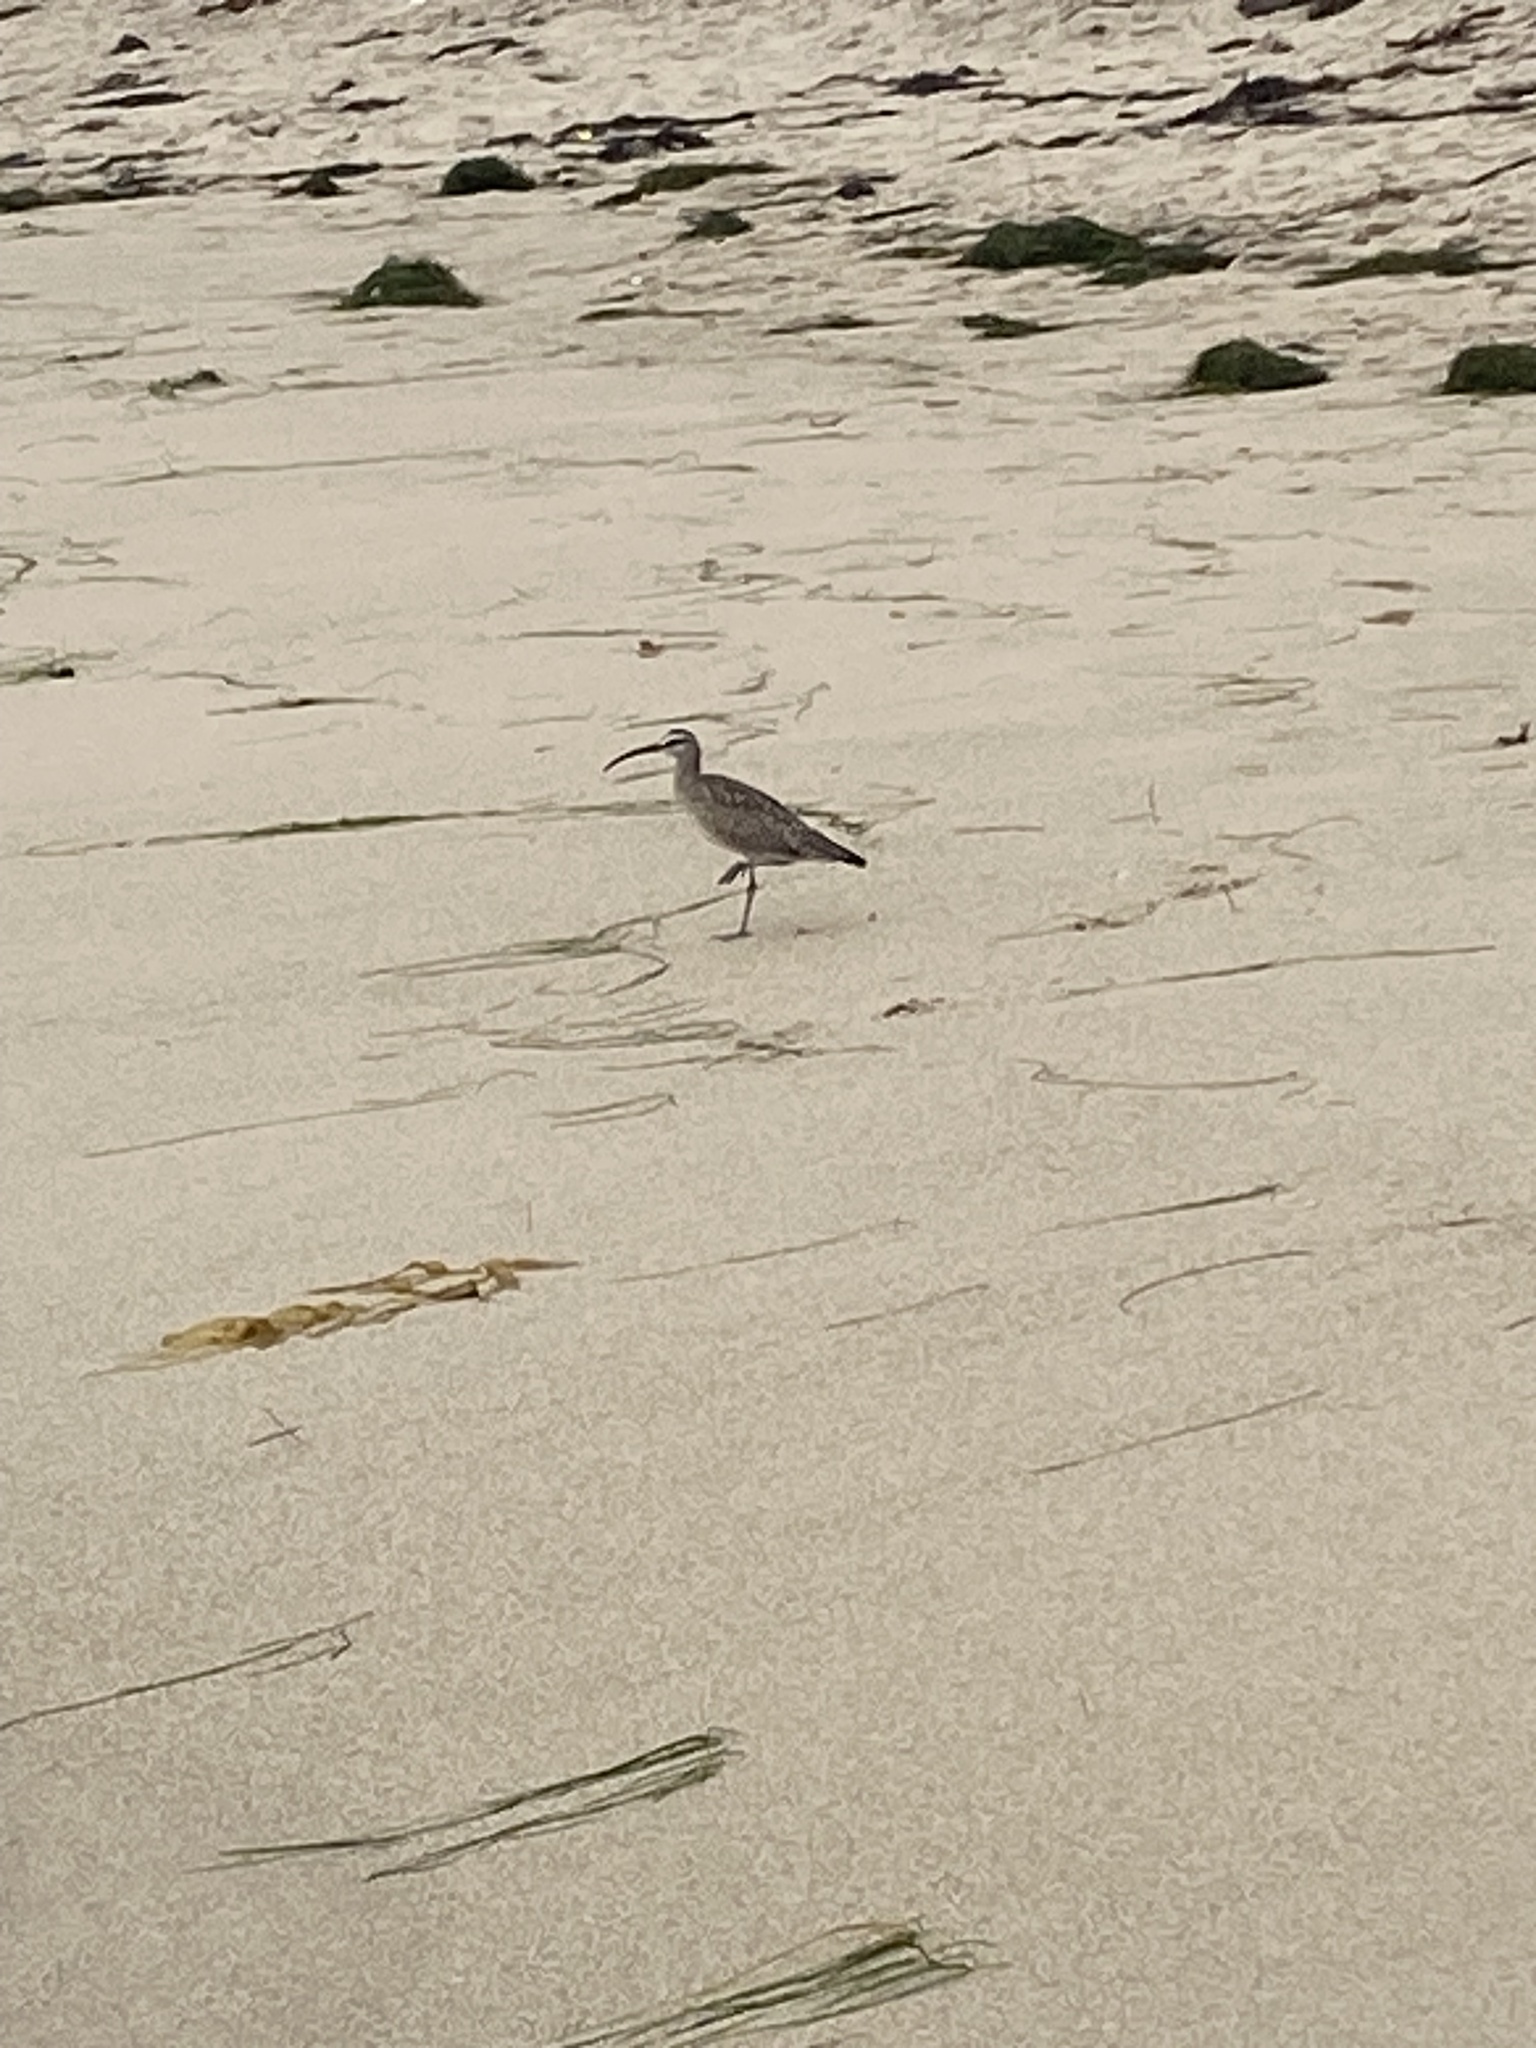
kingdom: Animalia
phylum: Chordata
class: Aves
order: Charadriiformes
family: Scolopacidae
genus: Numenius
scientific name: Numenius phaeopus
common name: Whimbrel
